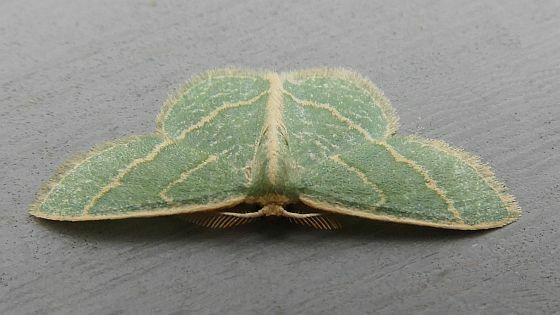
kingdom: Animalia
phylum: Arthropoda
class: Insecta
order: Lepidoptera
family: Geometridae
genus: Chlorochlamys
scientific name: Chlorochlamys chloroleucaria
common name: Blackberry looper
